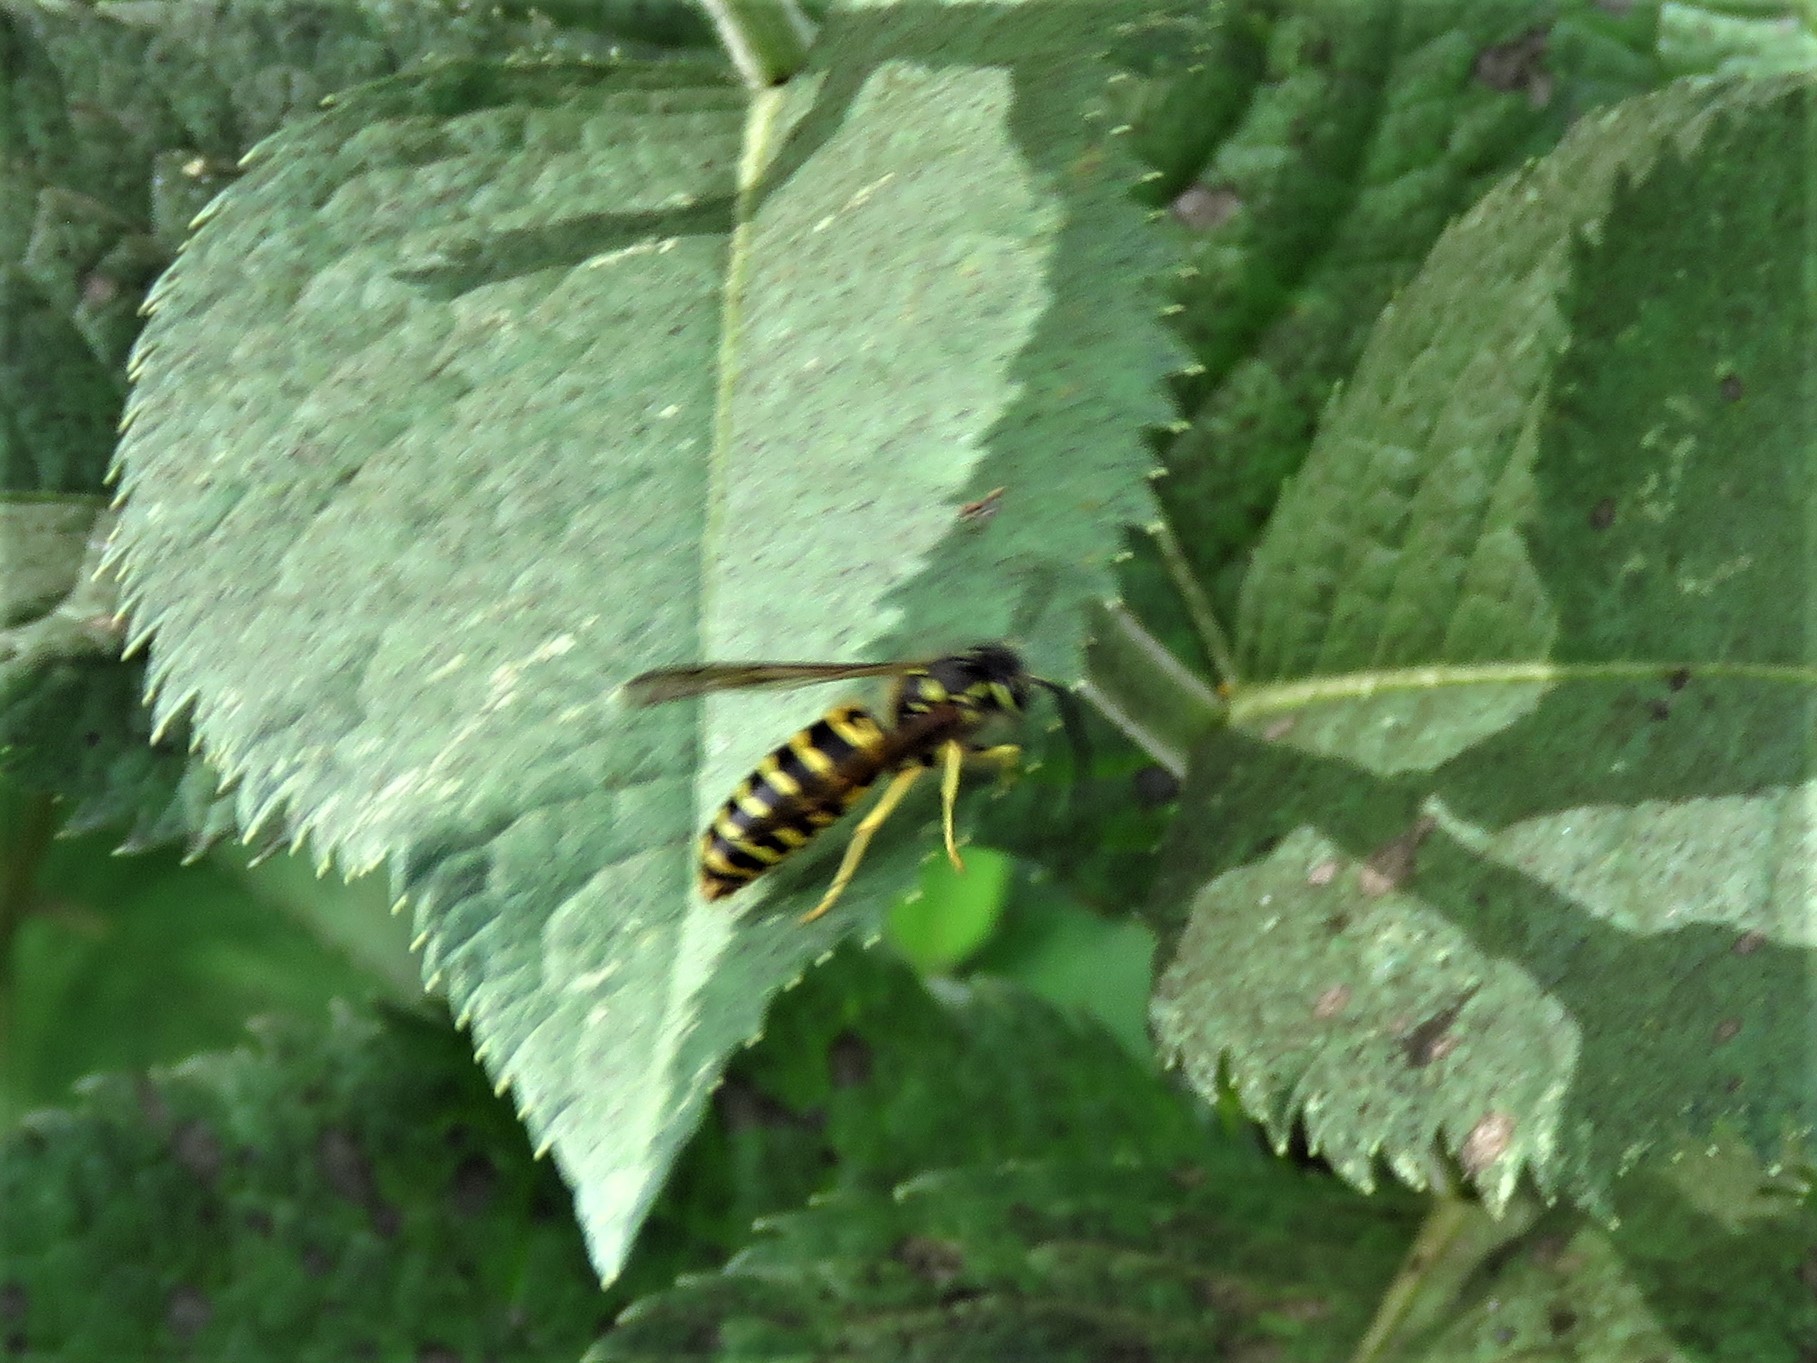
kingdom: Animalia
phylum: Arthropoda
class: Insecta
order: Hymenoptera
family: Vespidae
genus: Vespula
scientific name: Vespula maculifrons
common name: Eastern yellowjacket
